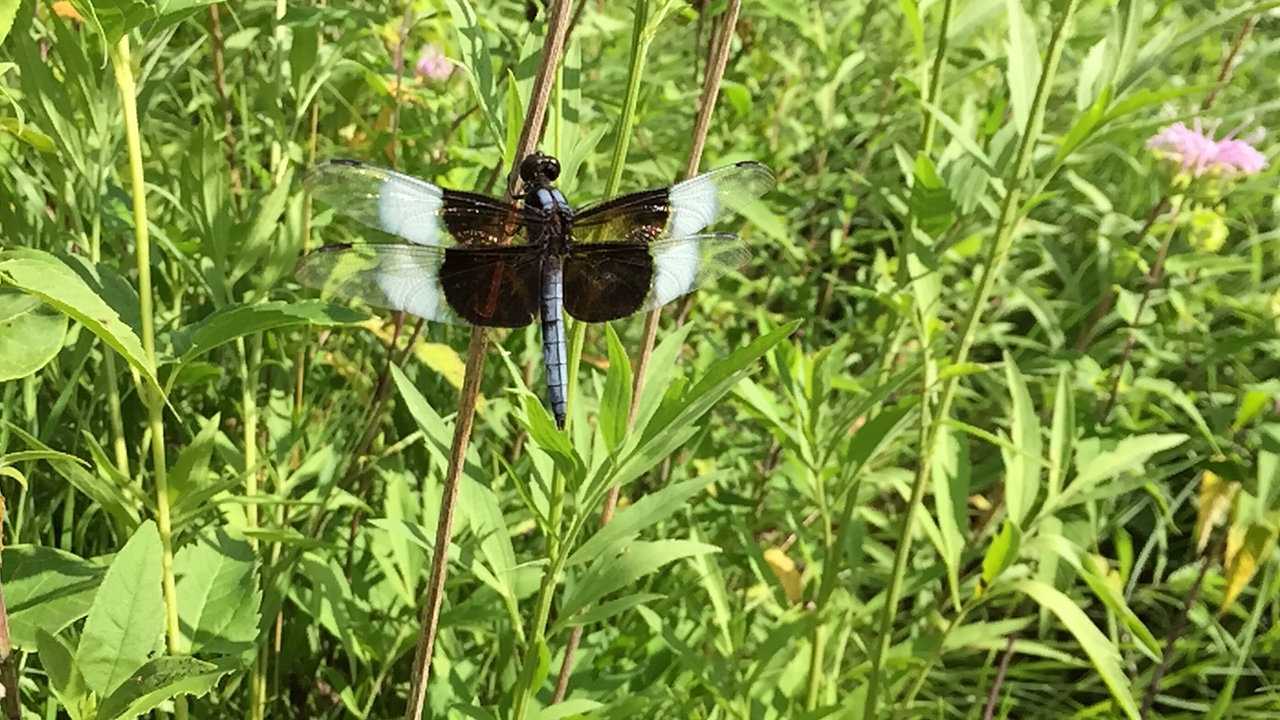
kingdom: Animalia
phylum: Arthropoda
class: Insecta
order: Odonata
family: Libellulidae
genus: Libellula
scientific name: Libellula luctuosa
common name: Widow skimmer
